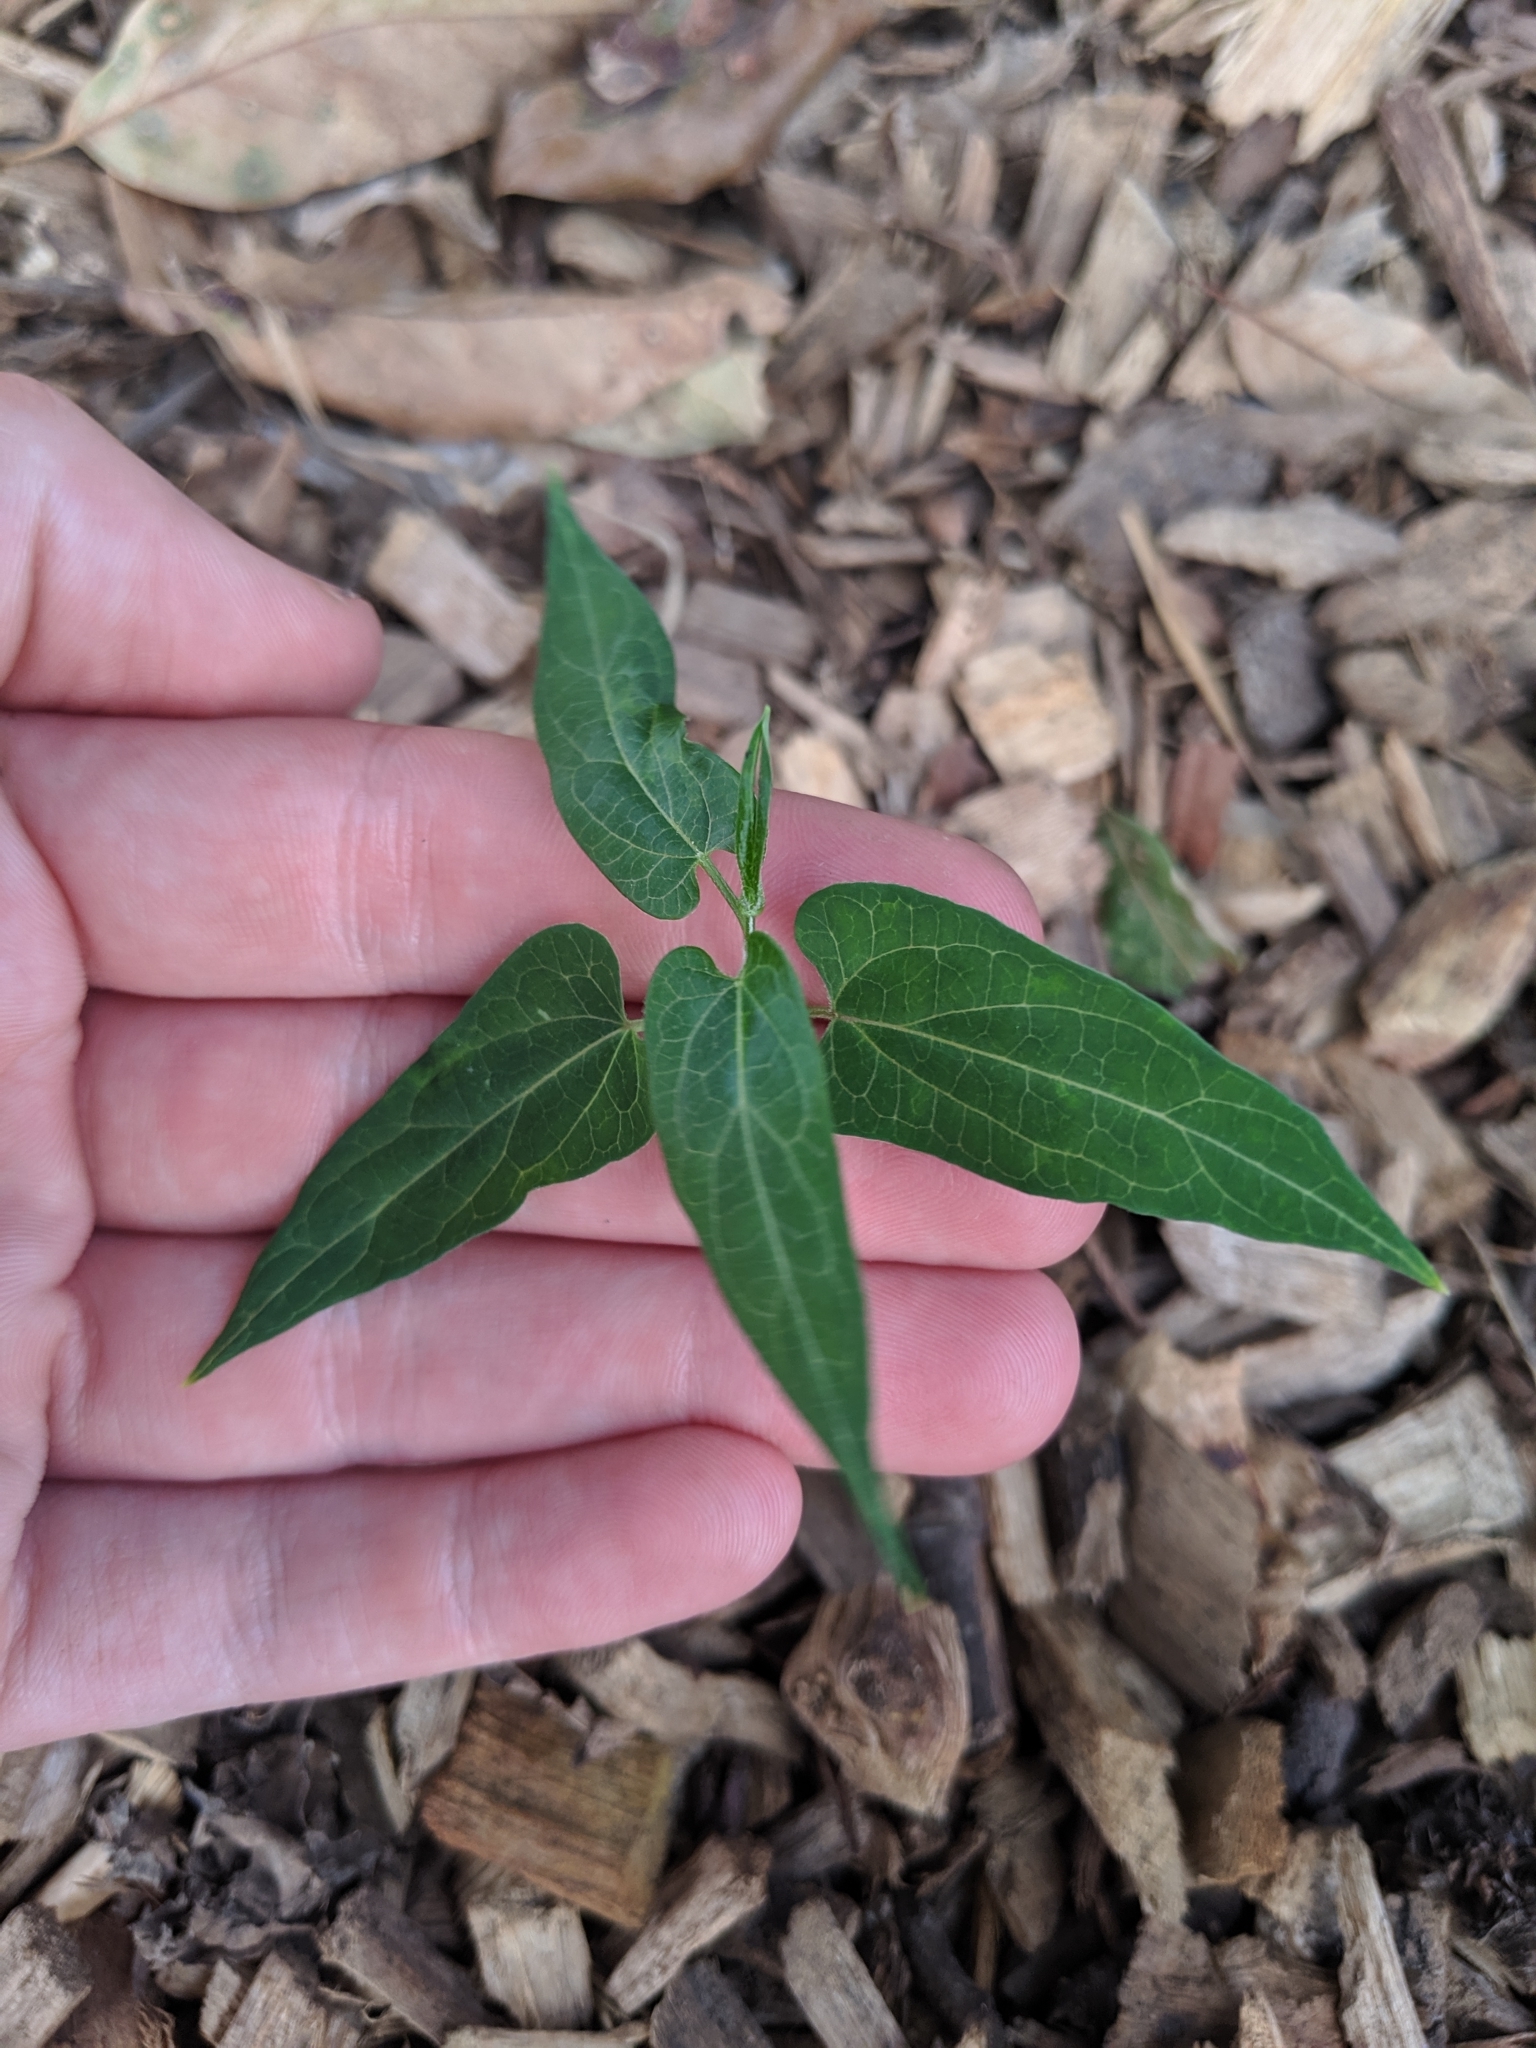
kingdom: Plantae
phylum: Tracheophyta
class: Magnoliopsida
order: Gentianales
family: Apocynaceae
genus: Cynanchum
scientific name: Cynanchum laeve
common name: Sandvine
